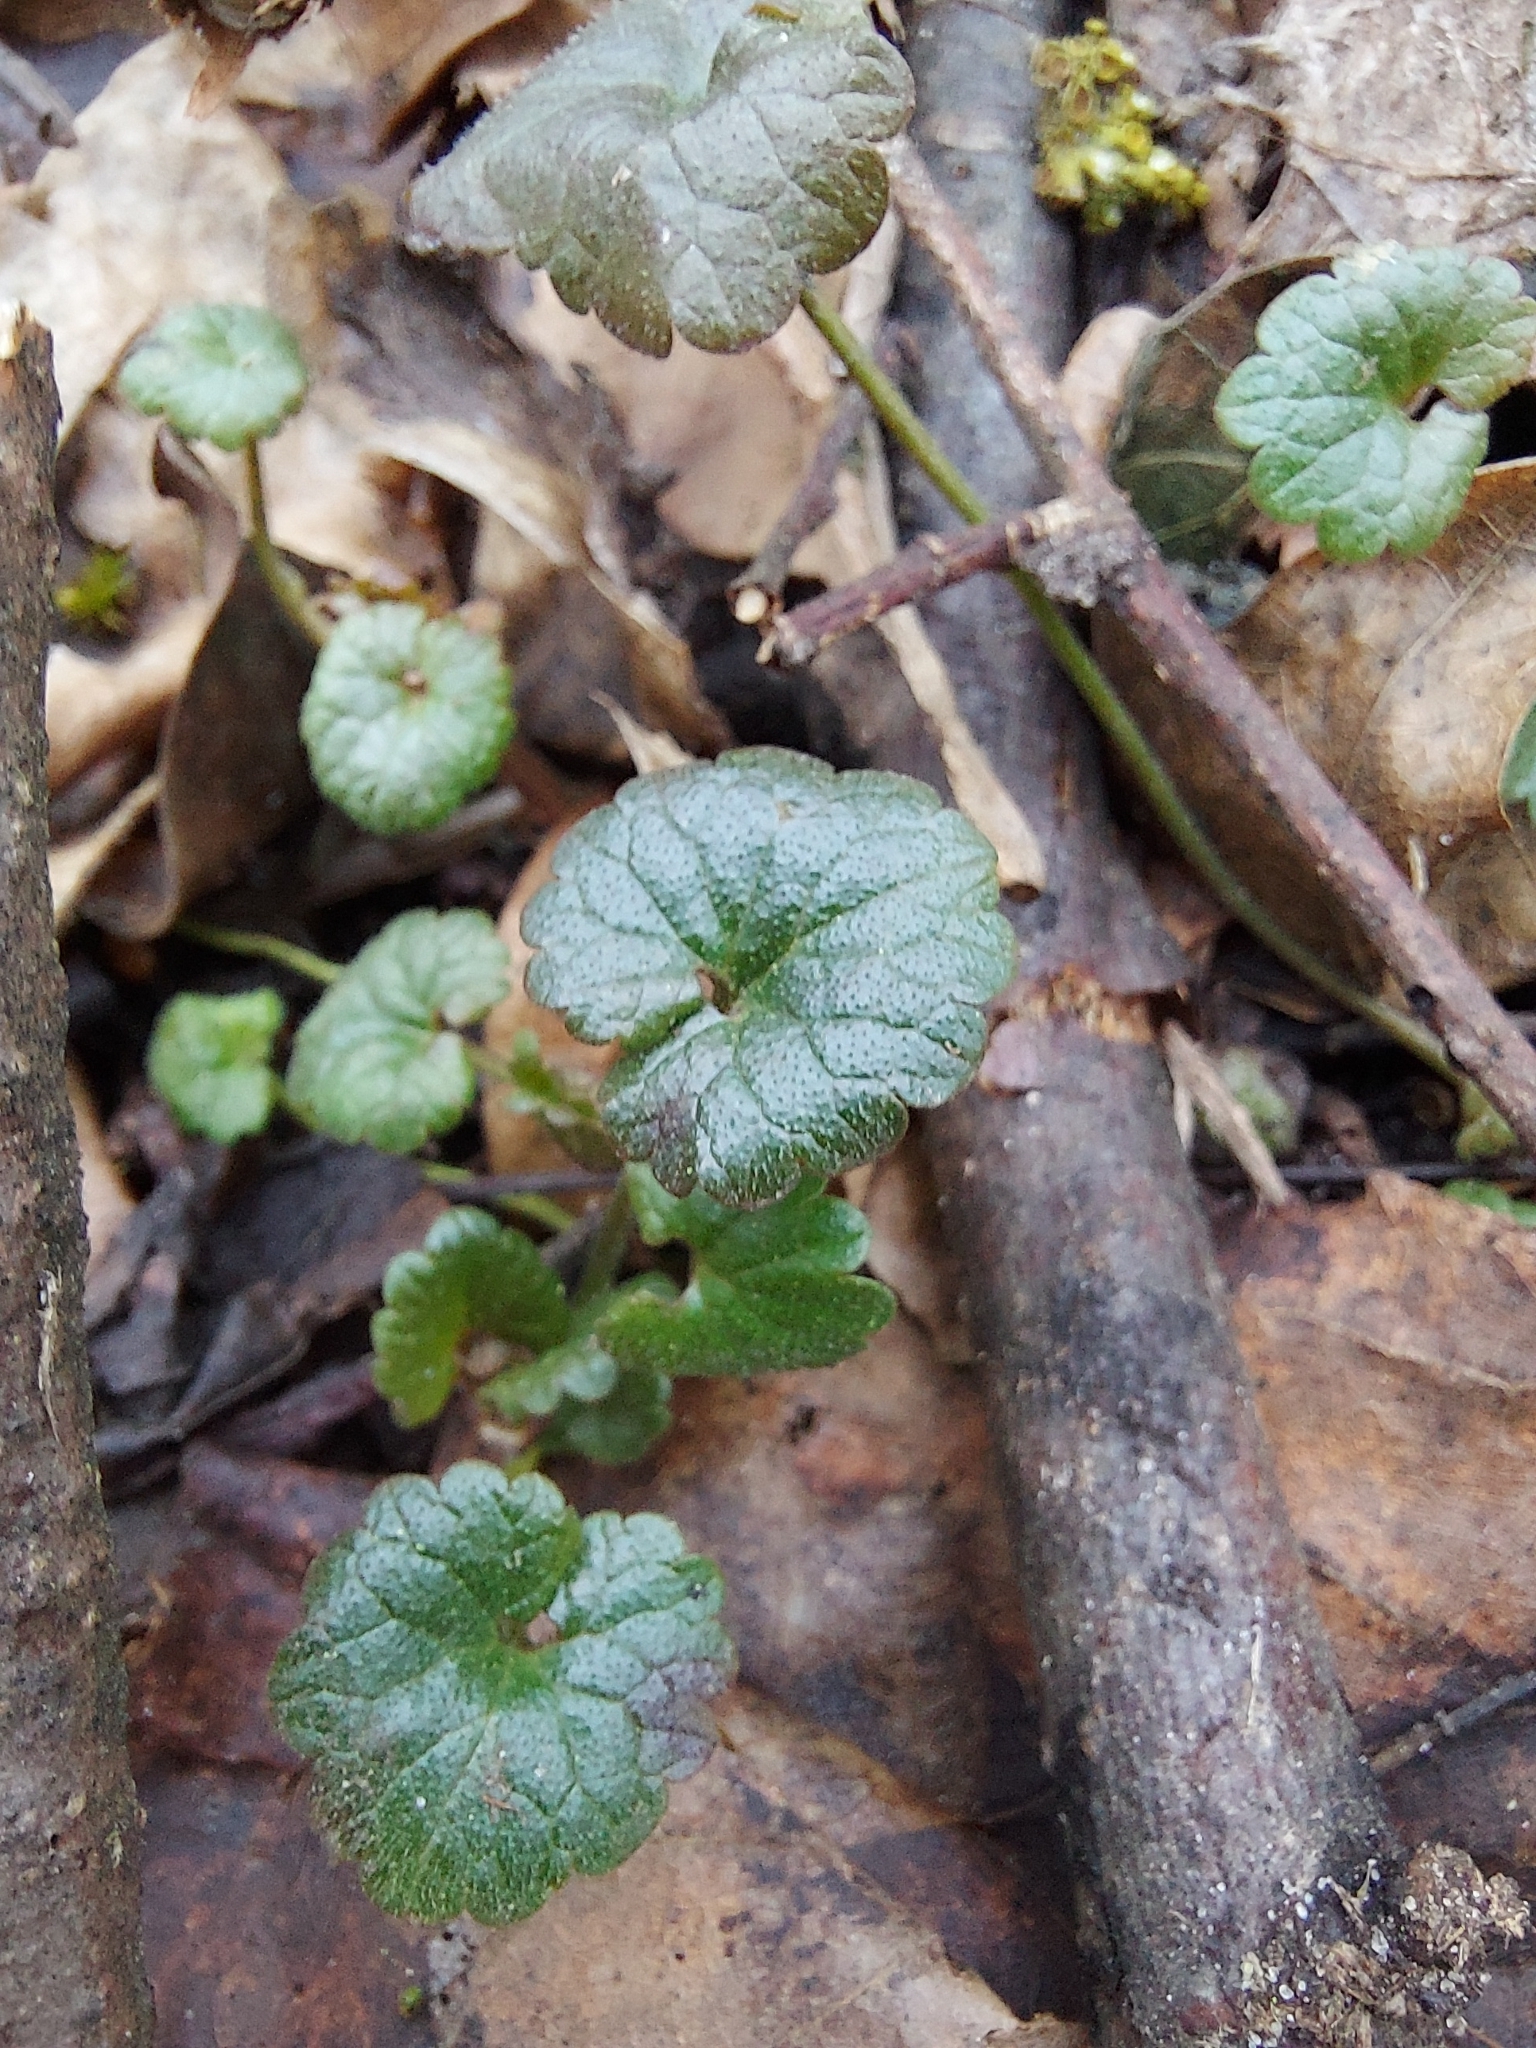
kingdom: Plantae
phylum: Tracheophyta
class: Magnoliopsida
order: Lamiales
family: Lamiaceae
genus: Glechoma
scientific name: Glechoma hederacea
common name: Ground ivy
